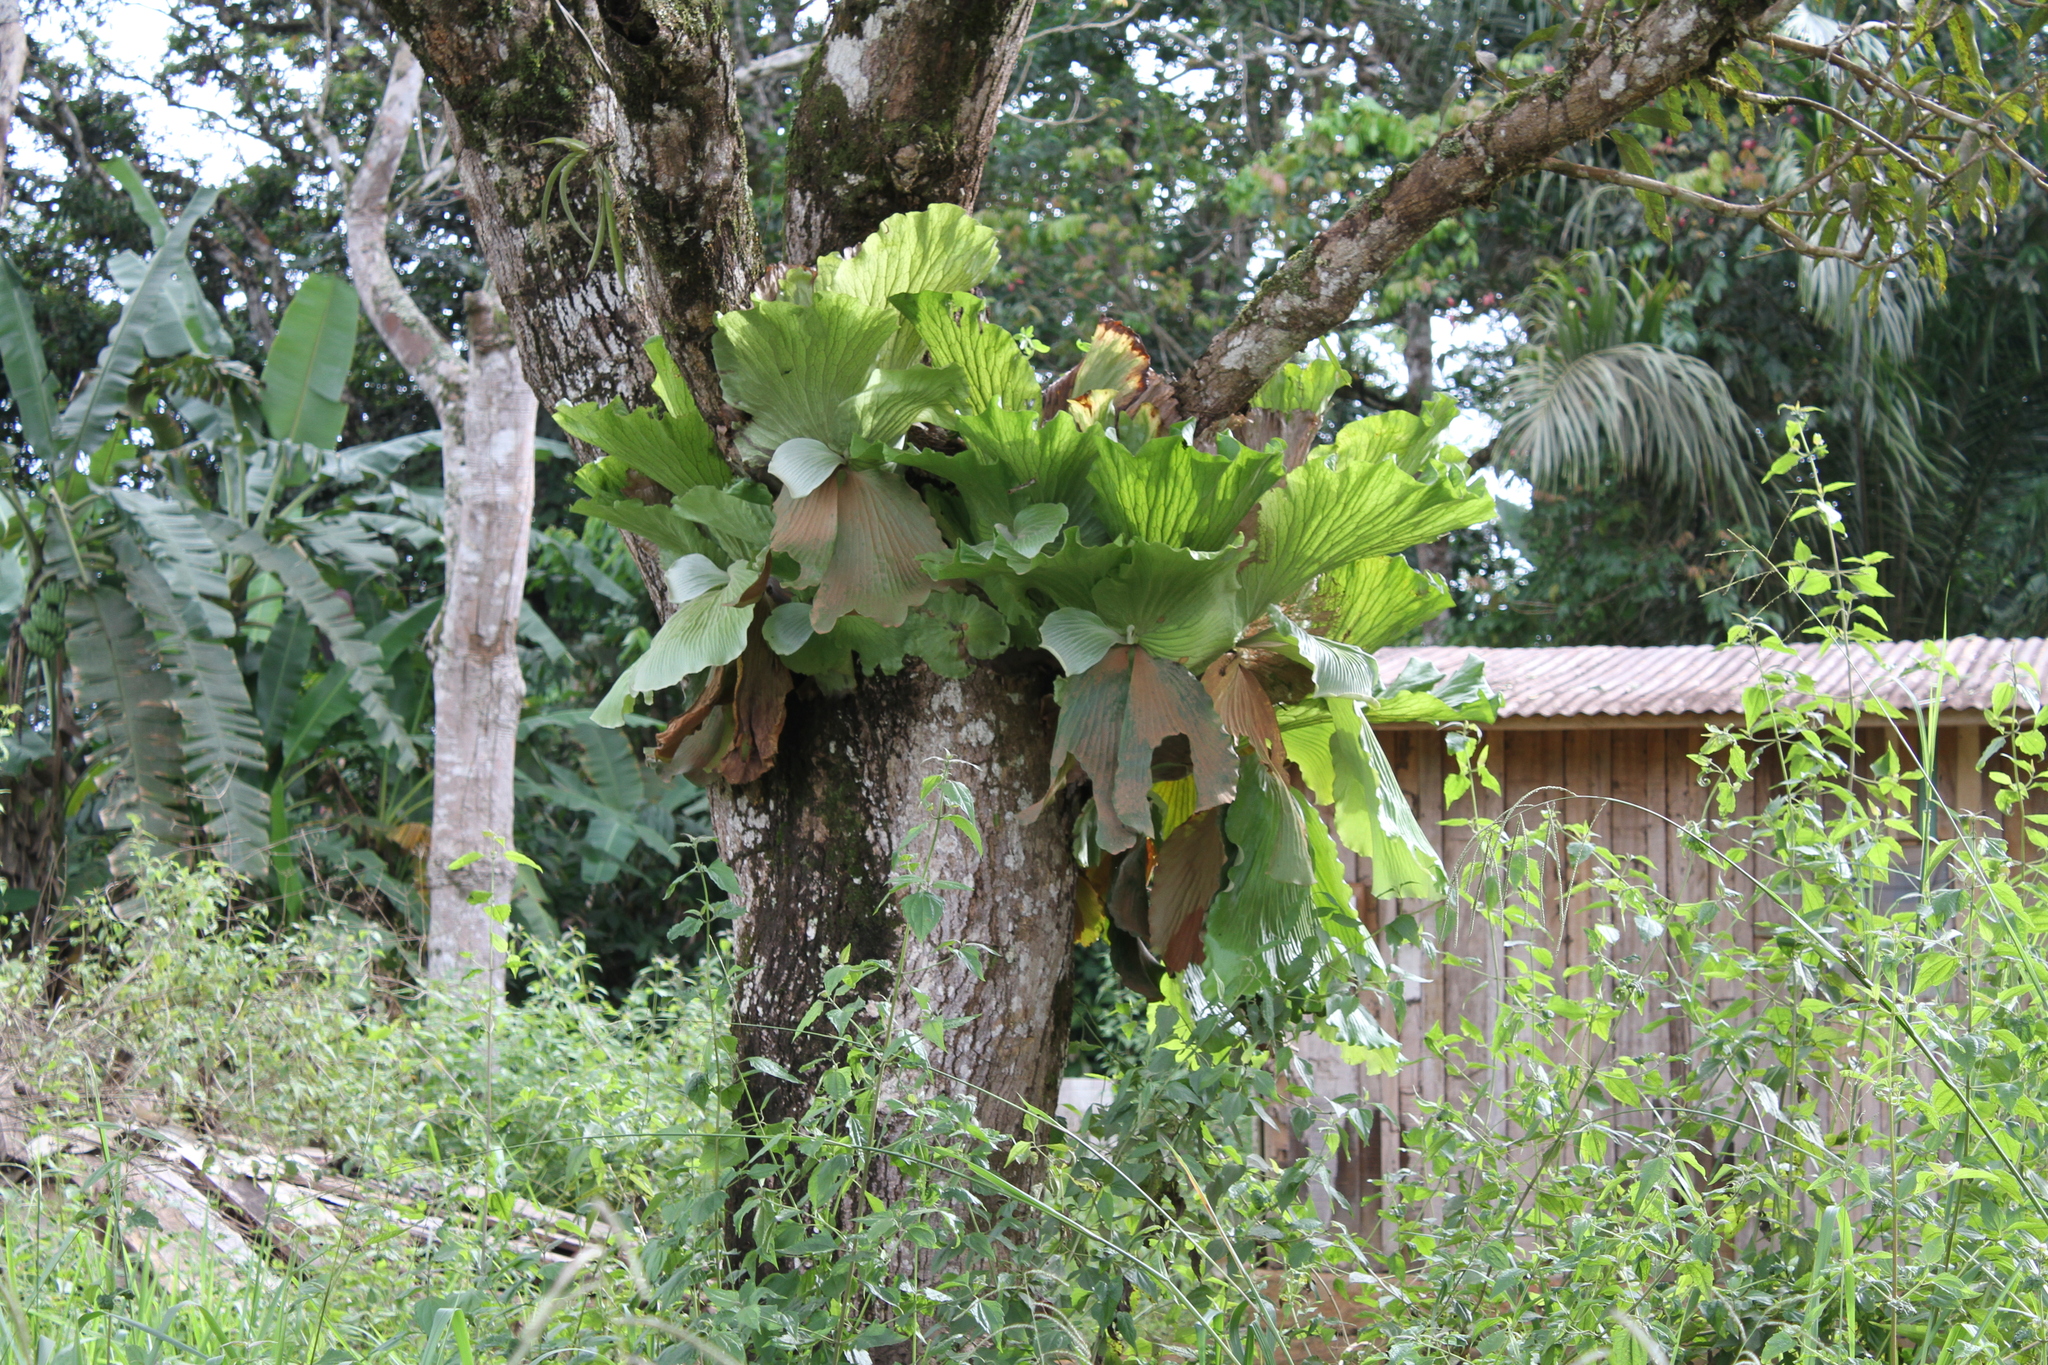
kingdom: Plantae
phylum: Tracheophyta
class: Polypodiopsida
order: Polypodiales
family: Polypodiaceae
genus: Platycerium
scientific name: Platycerium elephantotis
